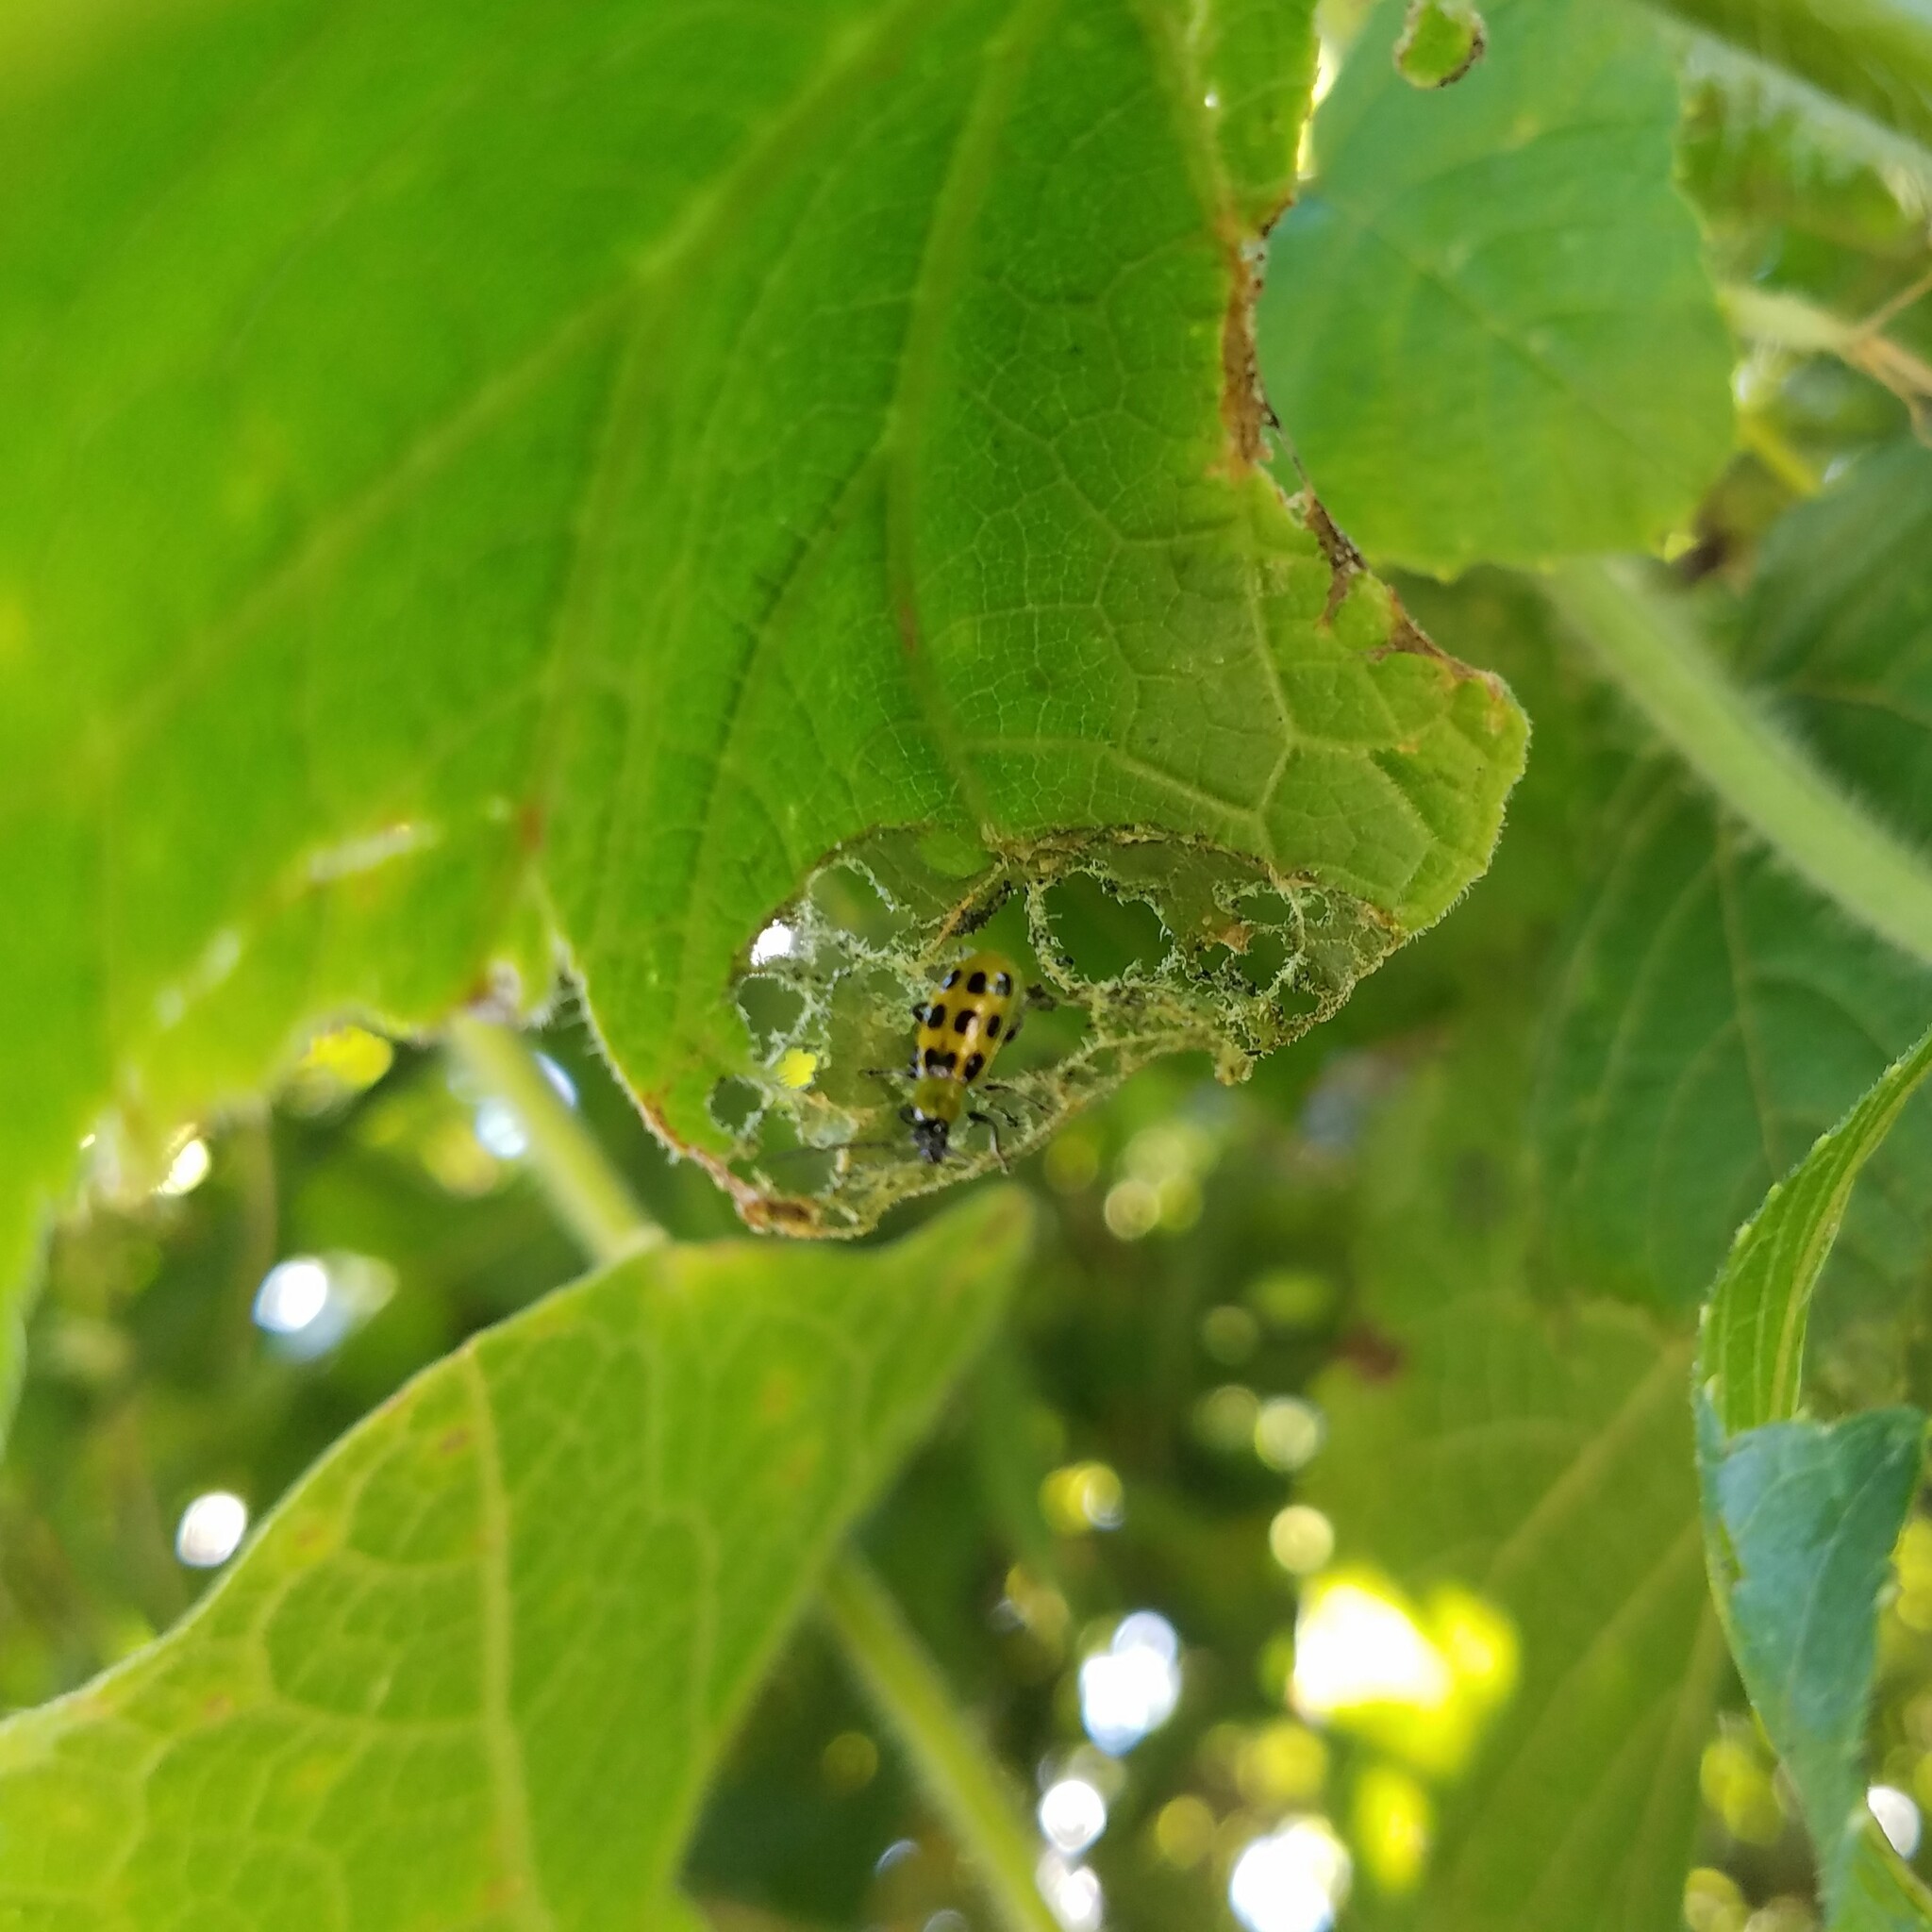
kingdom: Animalia
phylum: Arthropoda
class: Insecta
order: Coleoptera
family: Chrysomelidae
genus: Diabrotica
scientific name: Diabrotica undecimpunctata
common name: Spotted cucumber beetle
